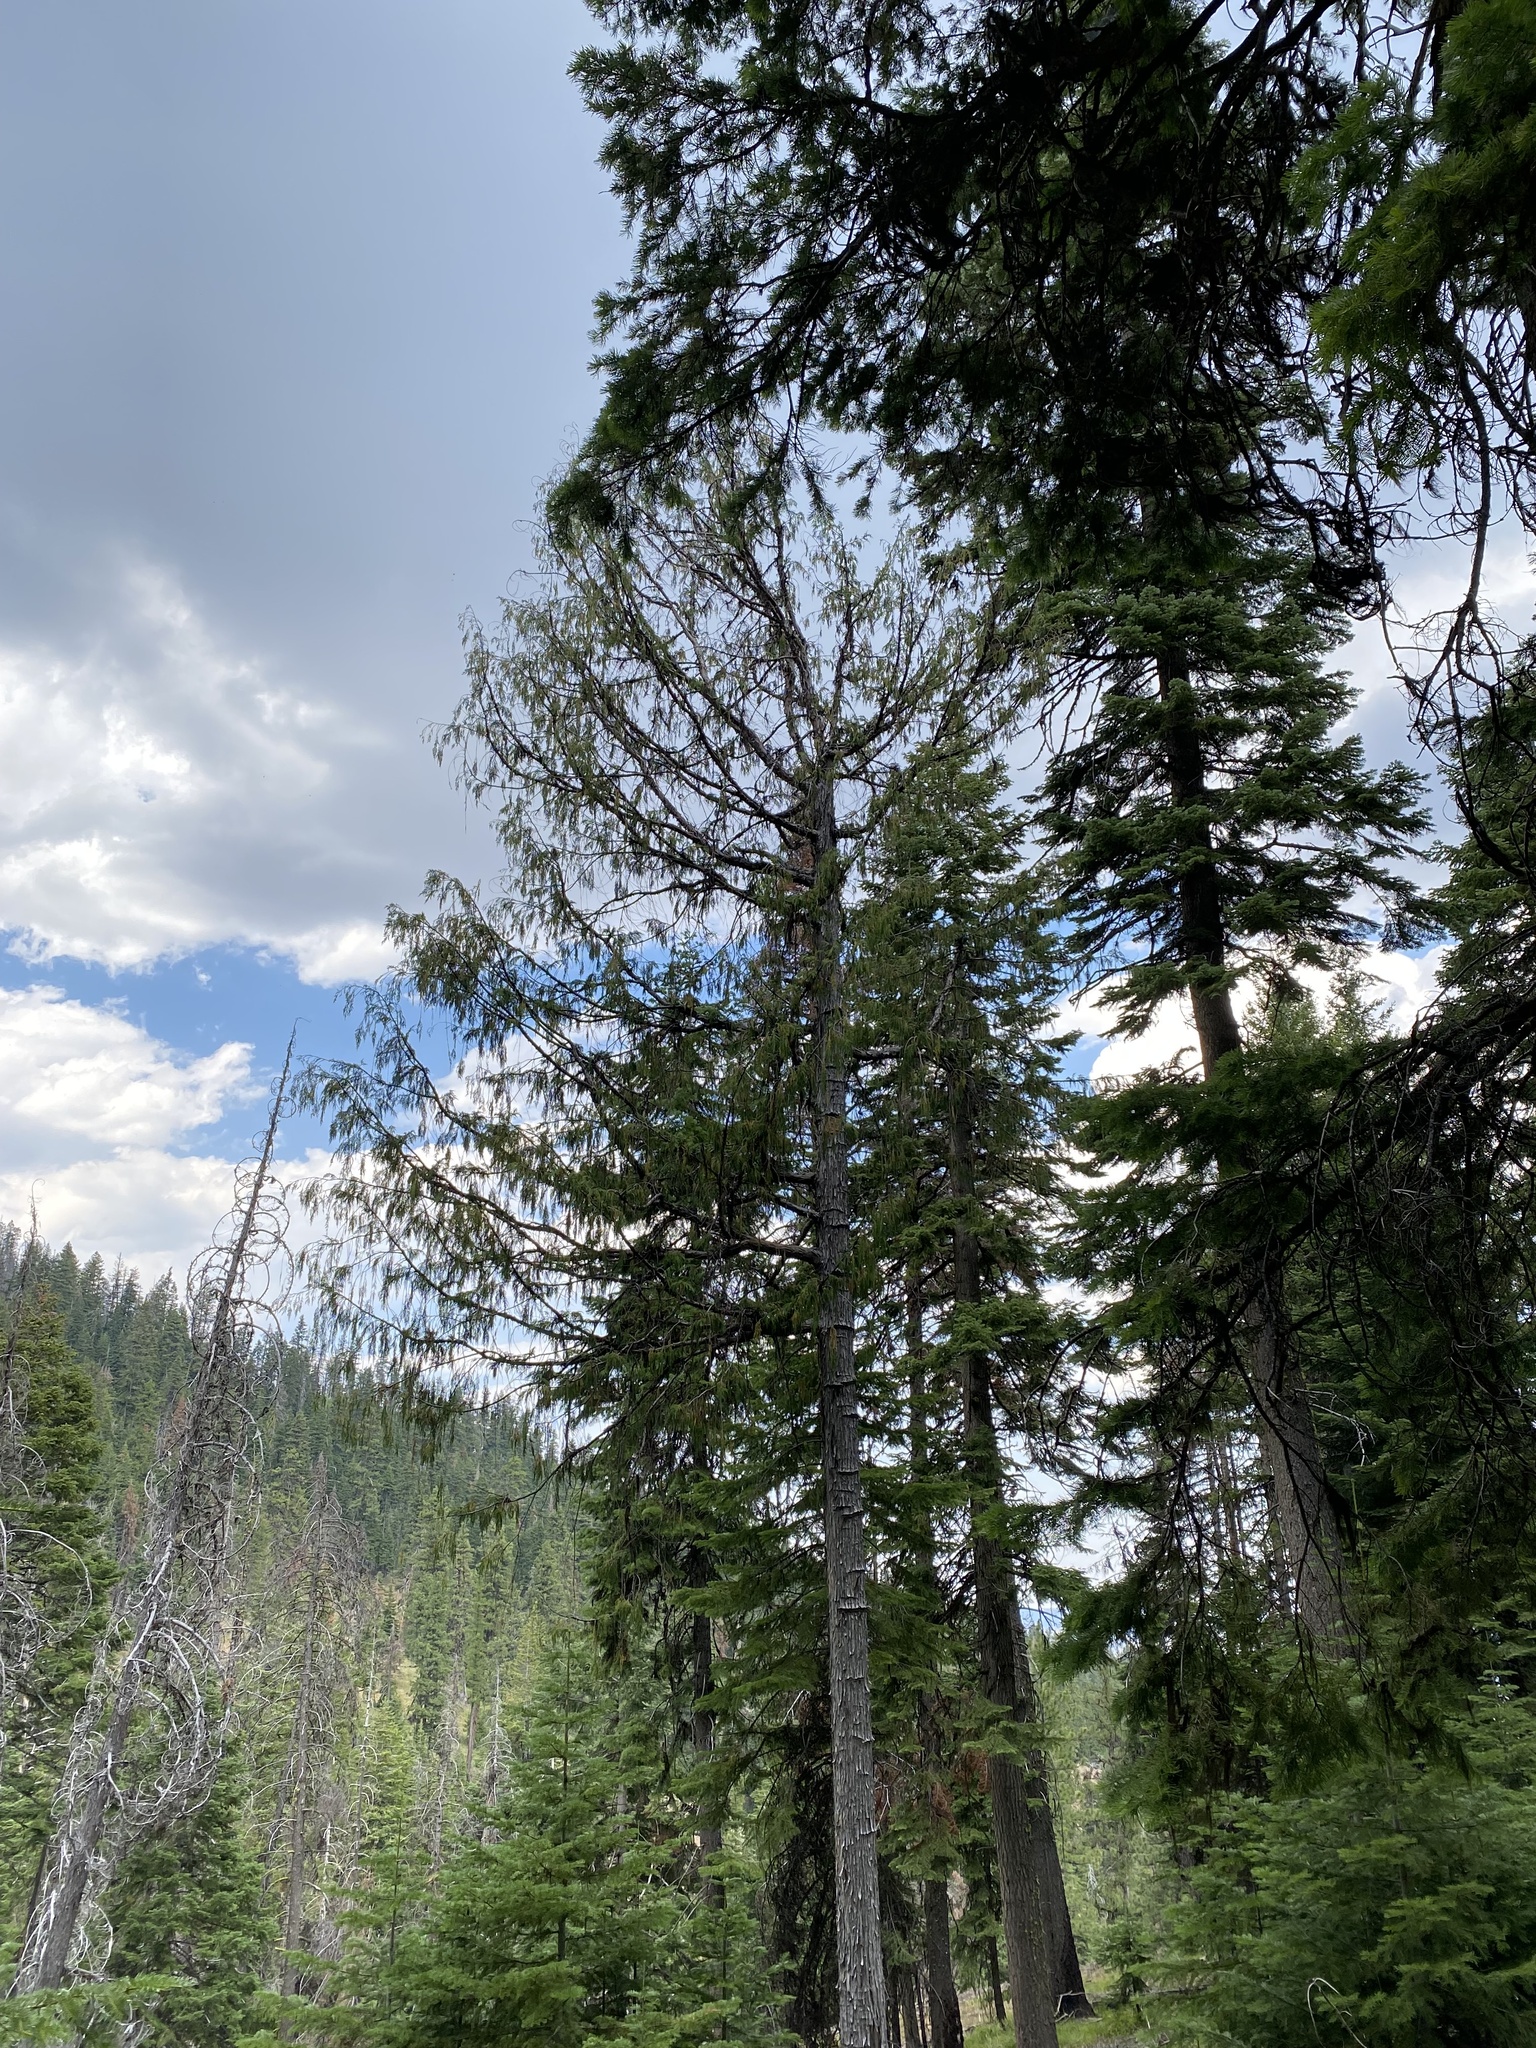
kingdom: Plantae
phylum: Tracheophyta
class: Pinopsida
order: Pinales
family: Cupressaceae
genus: Xanthocyparis
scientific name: Xanthocyparis nootkatensis
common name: Nootka cypress
